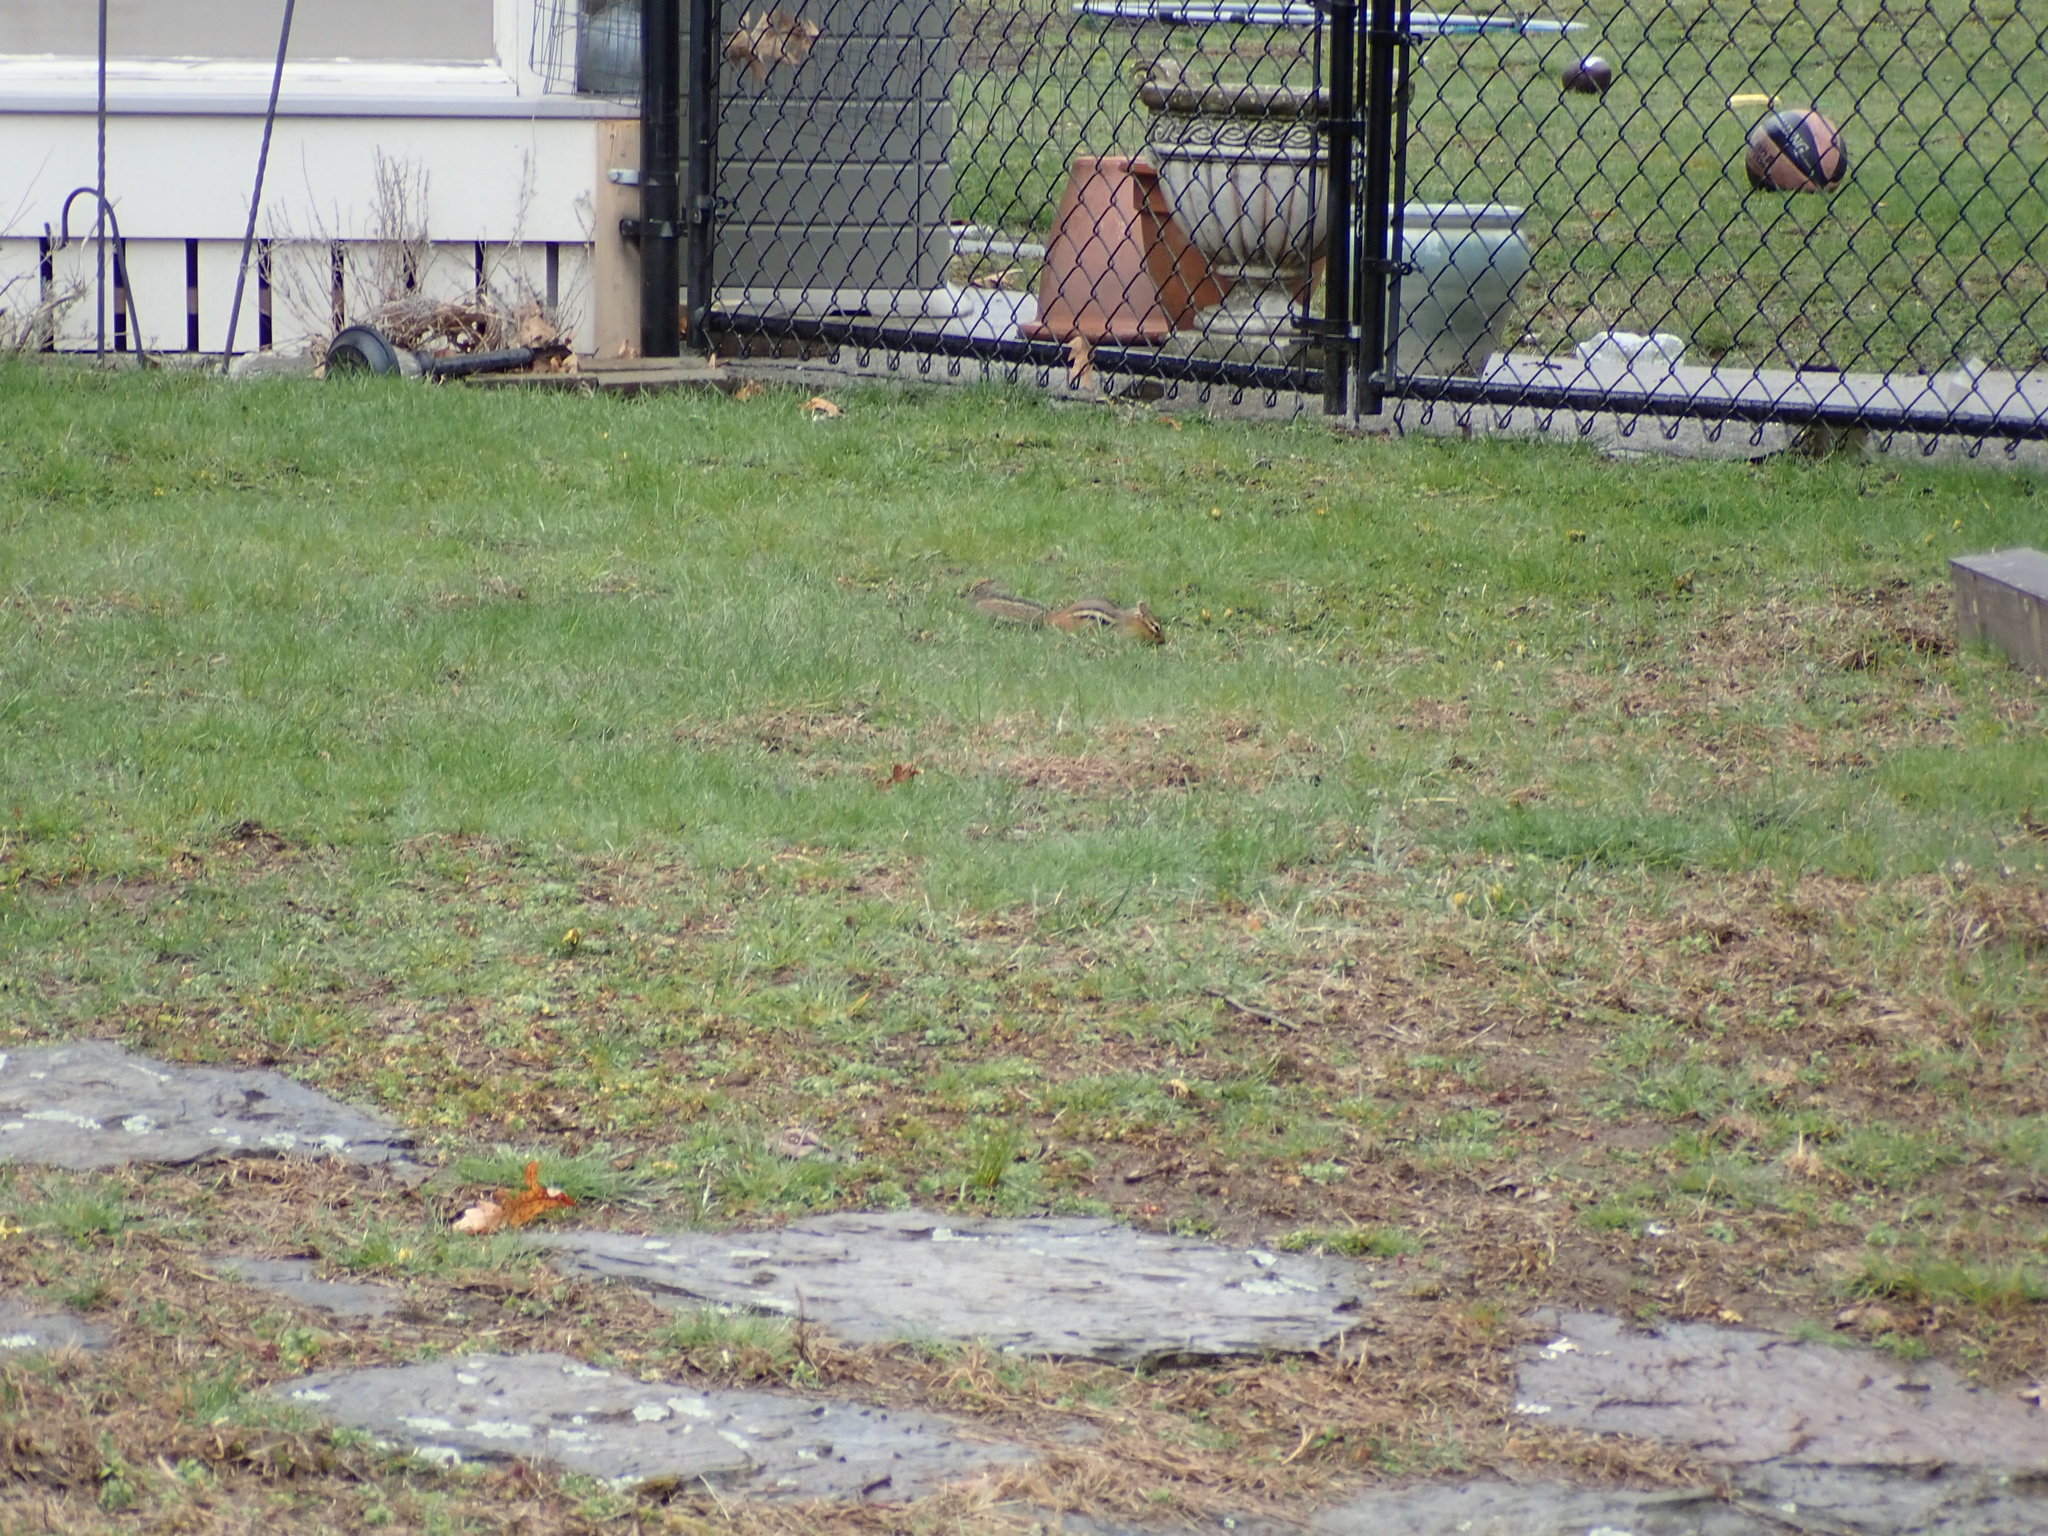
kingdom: Animalia
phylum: Chordata
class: Mammalia
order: Rodentia
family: Sciuridae
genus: Tamias
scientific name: Tamias striatus
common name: Eastern chipmunk
